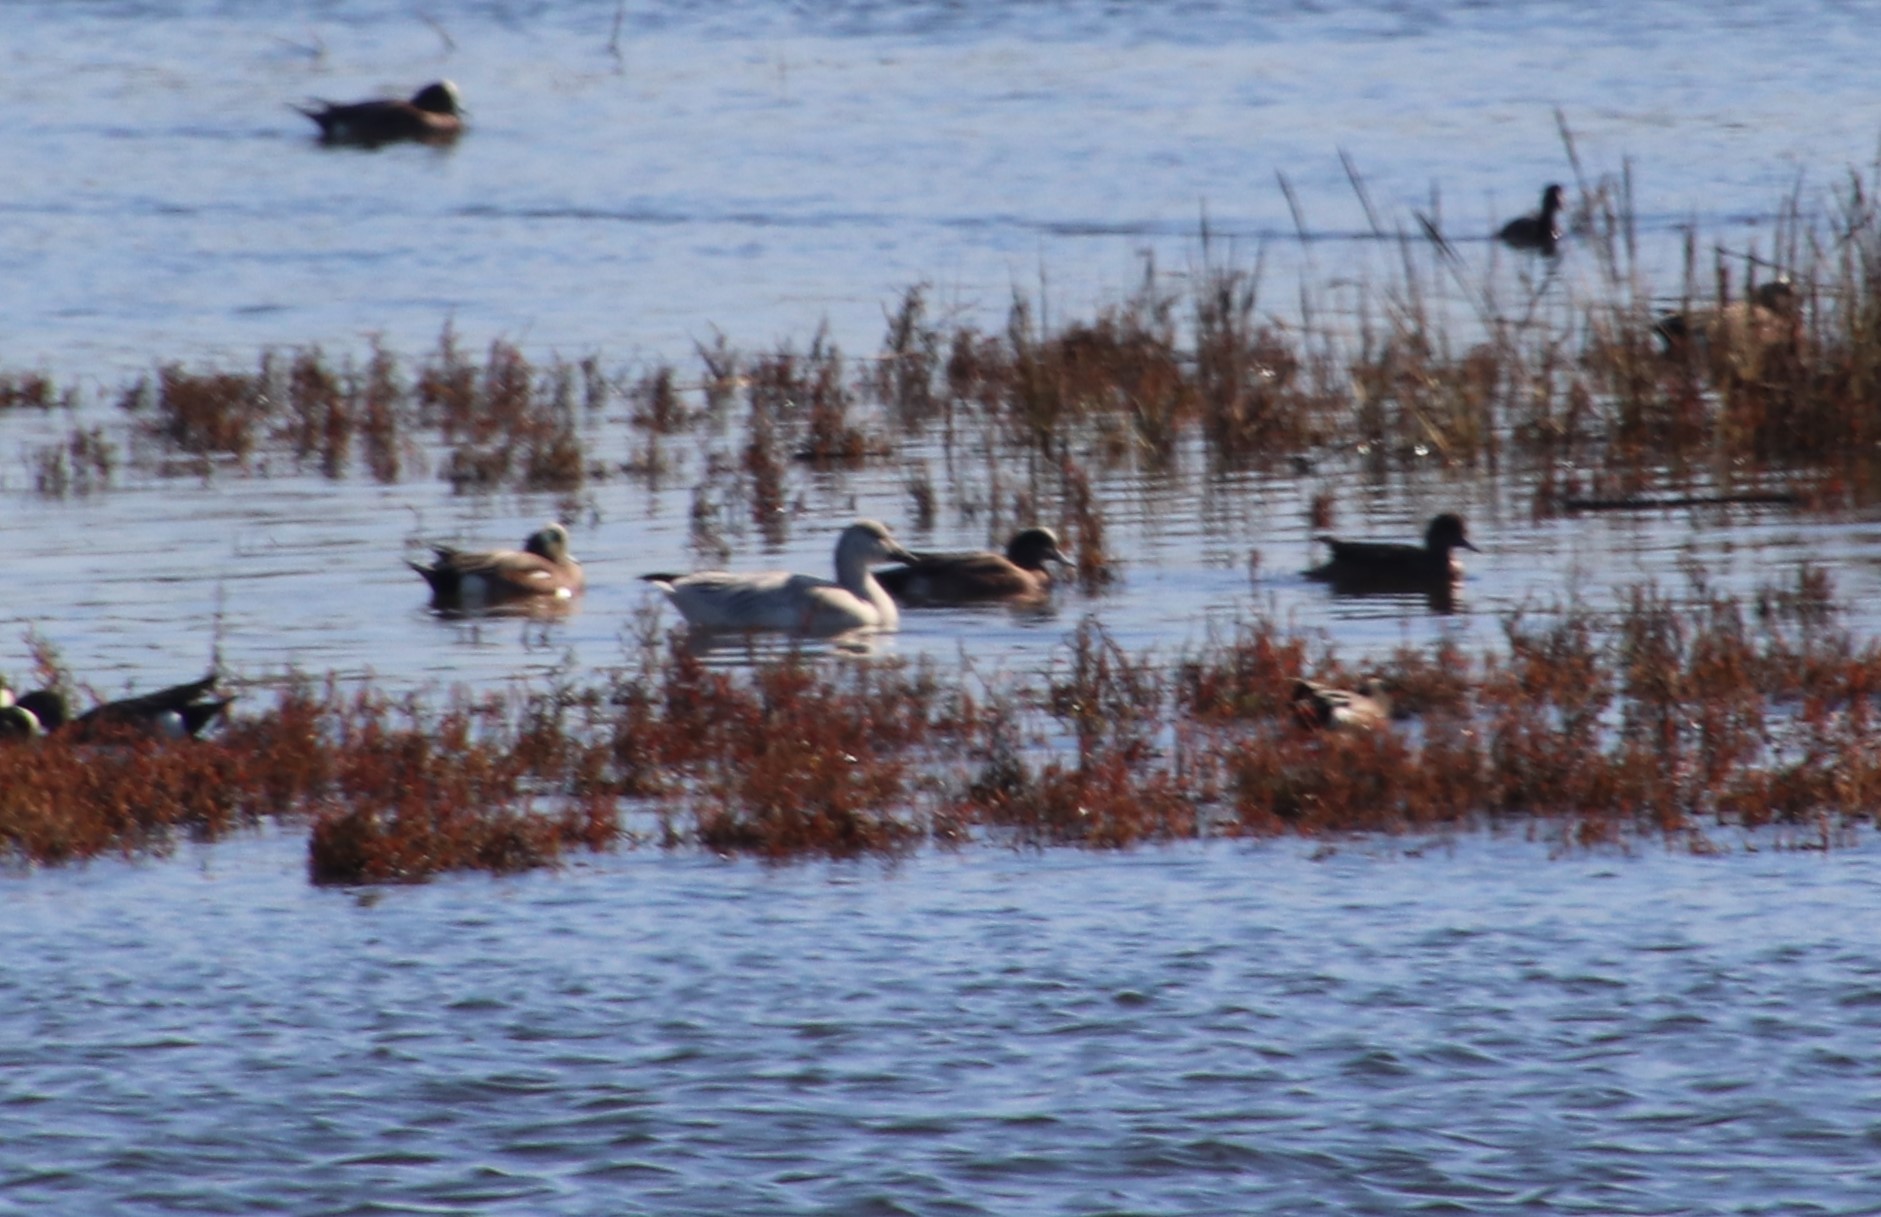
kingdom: Animalia
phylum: Chordata
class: Aves
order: Anseriformes
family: Anatidae
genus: Anser
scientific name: Anser caerulescens
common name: Snow goose
